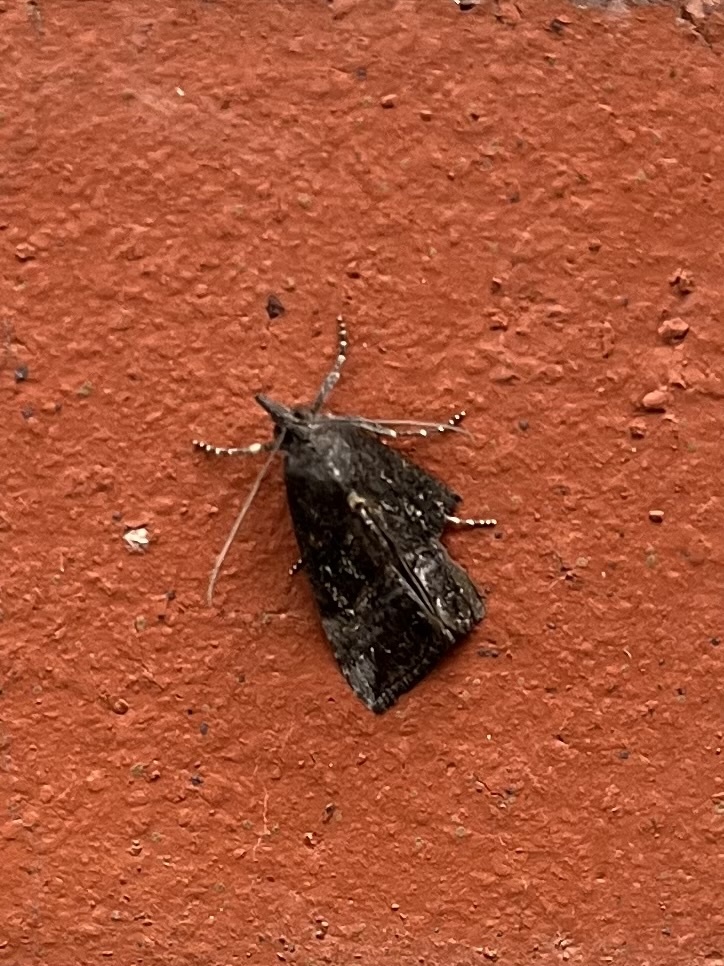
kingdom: Animalia
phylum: Arthropoda
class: Insecta
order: Lepidoptera
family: Erebidae
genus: Hypena
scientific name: Hypena scabra
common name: Green cloverworm
